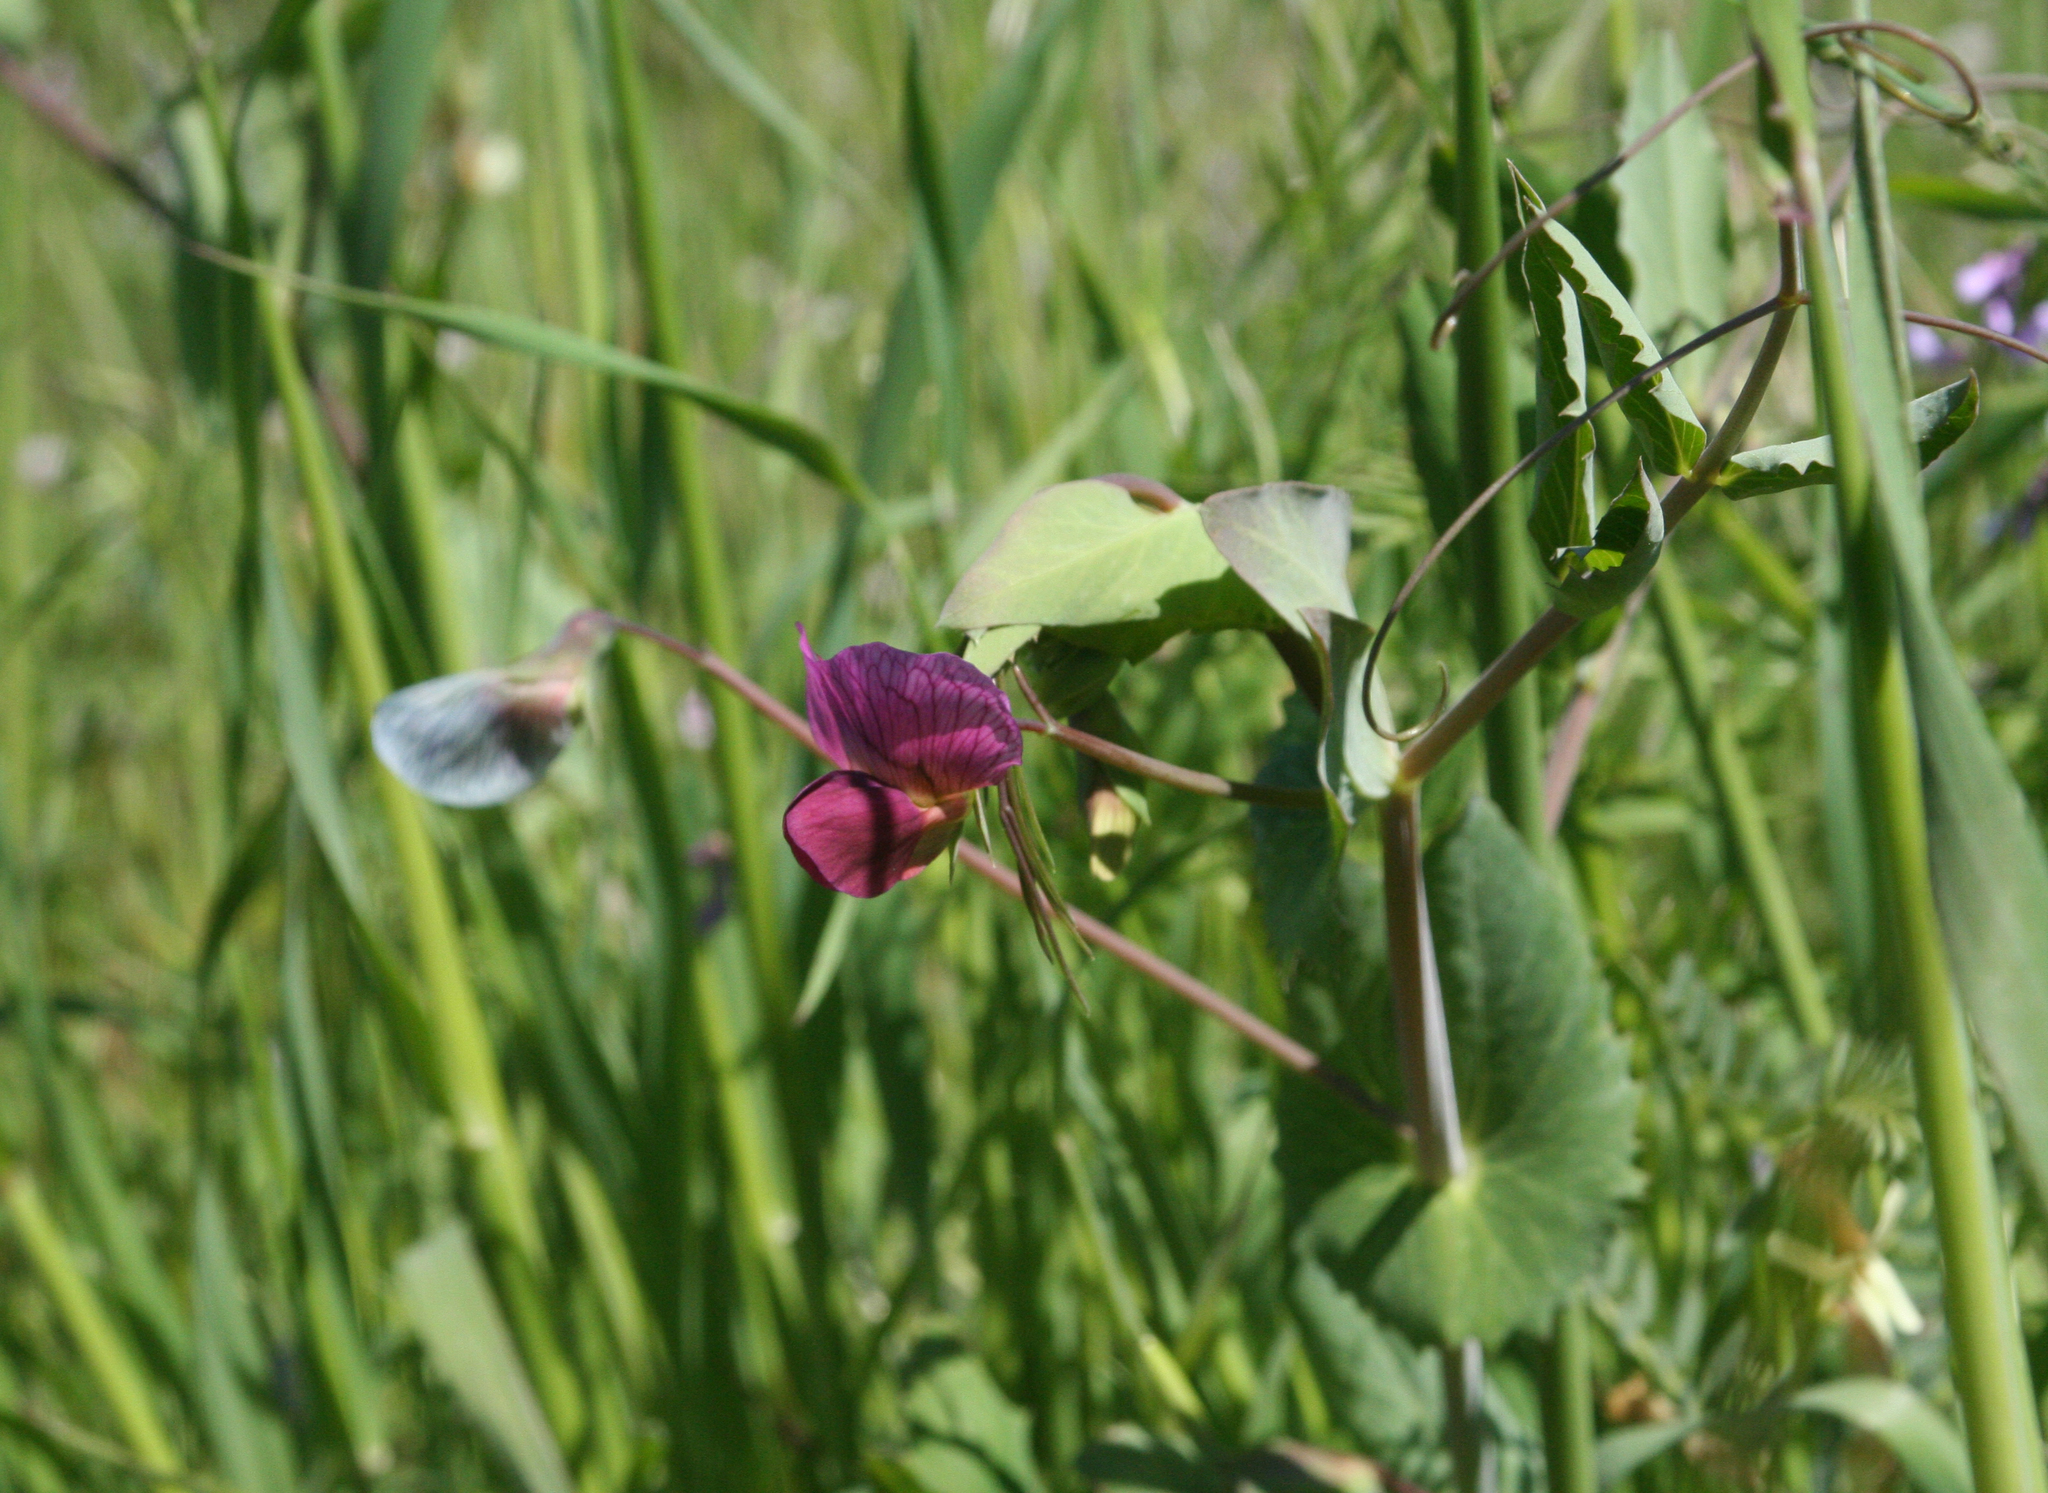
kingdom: Plantae
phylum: Tracheophyta
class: Magnoliopsida
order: Fabales
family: Fabaceae
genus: Lathyrus
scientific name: Lathyrus oleraceus
